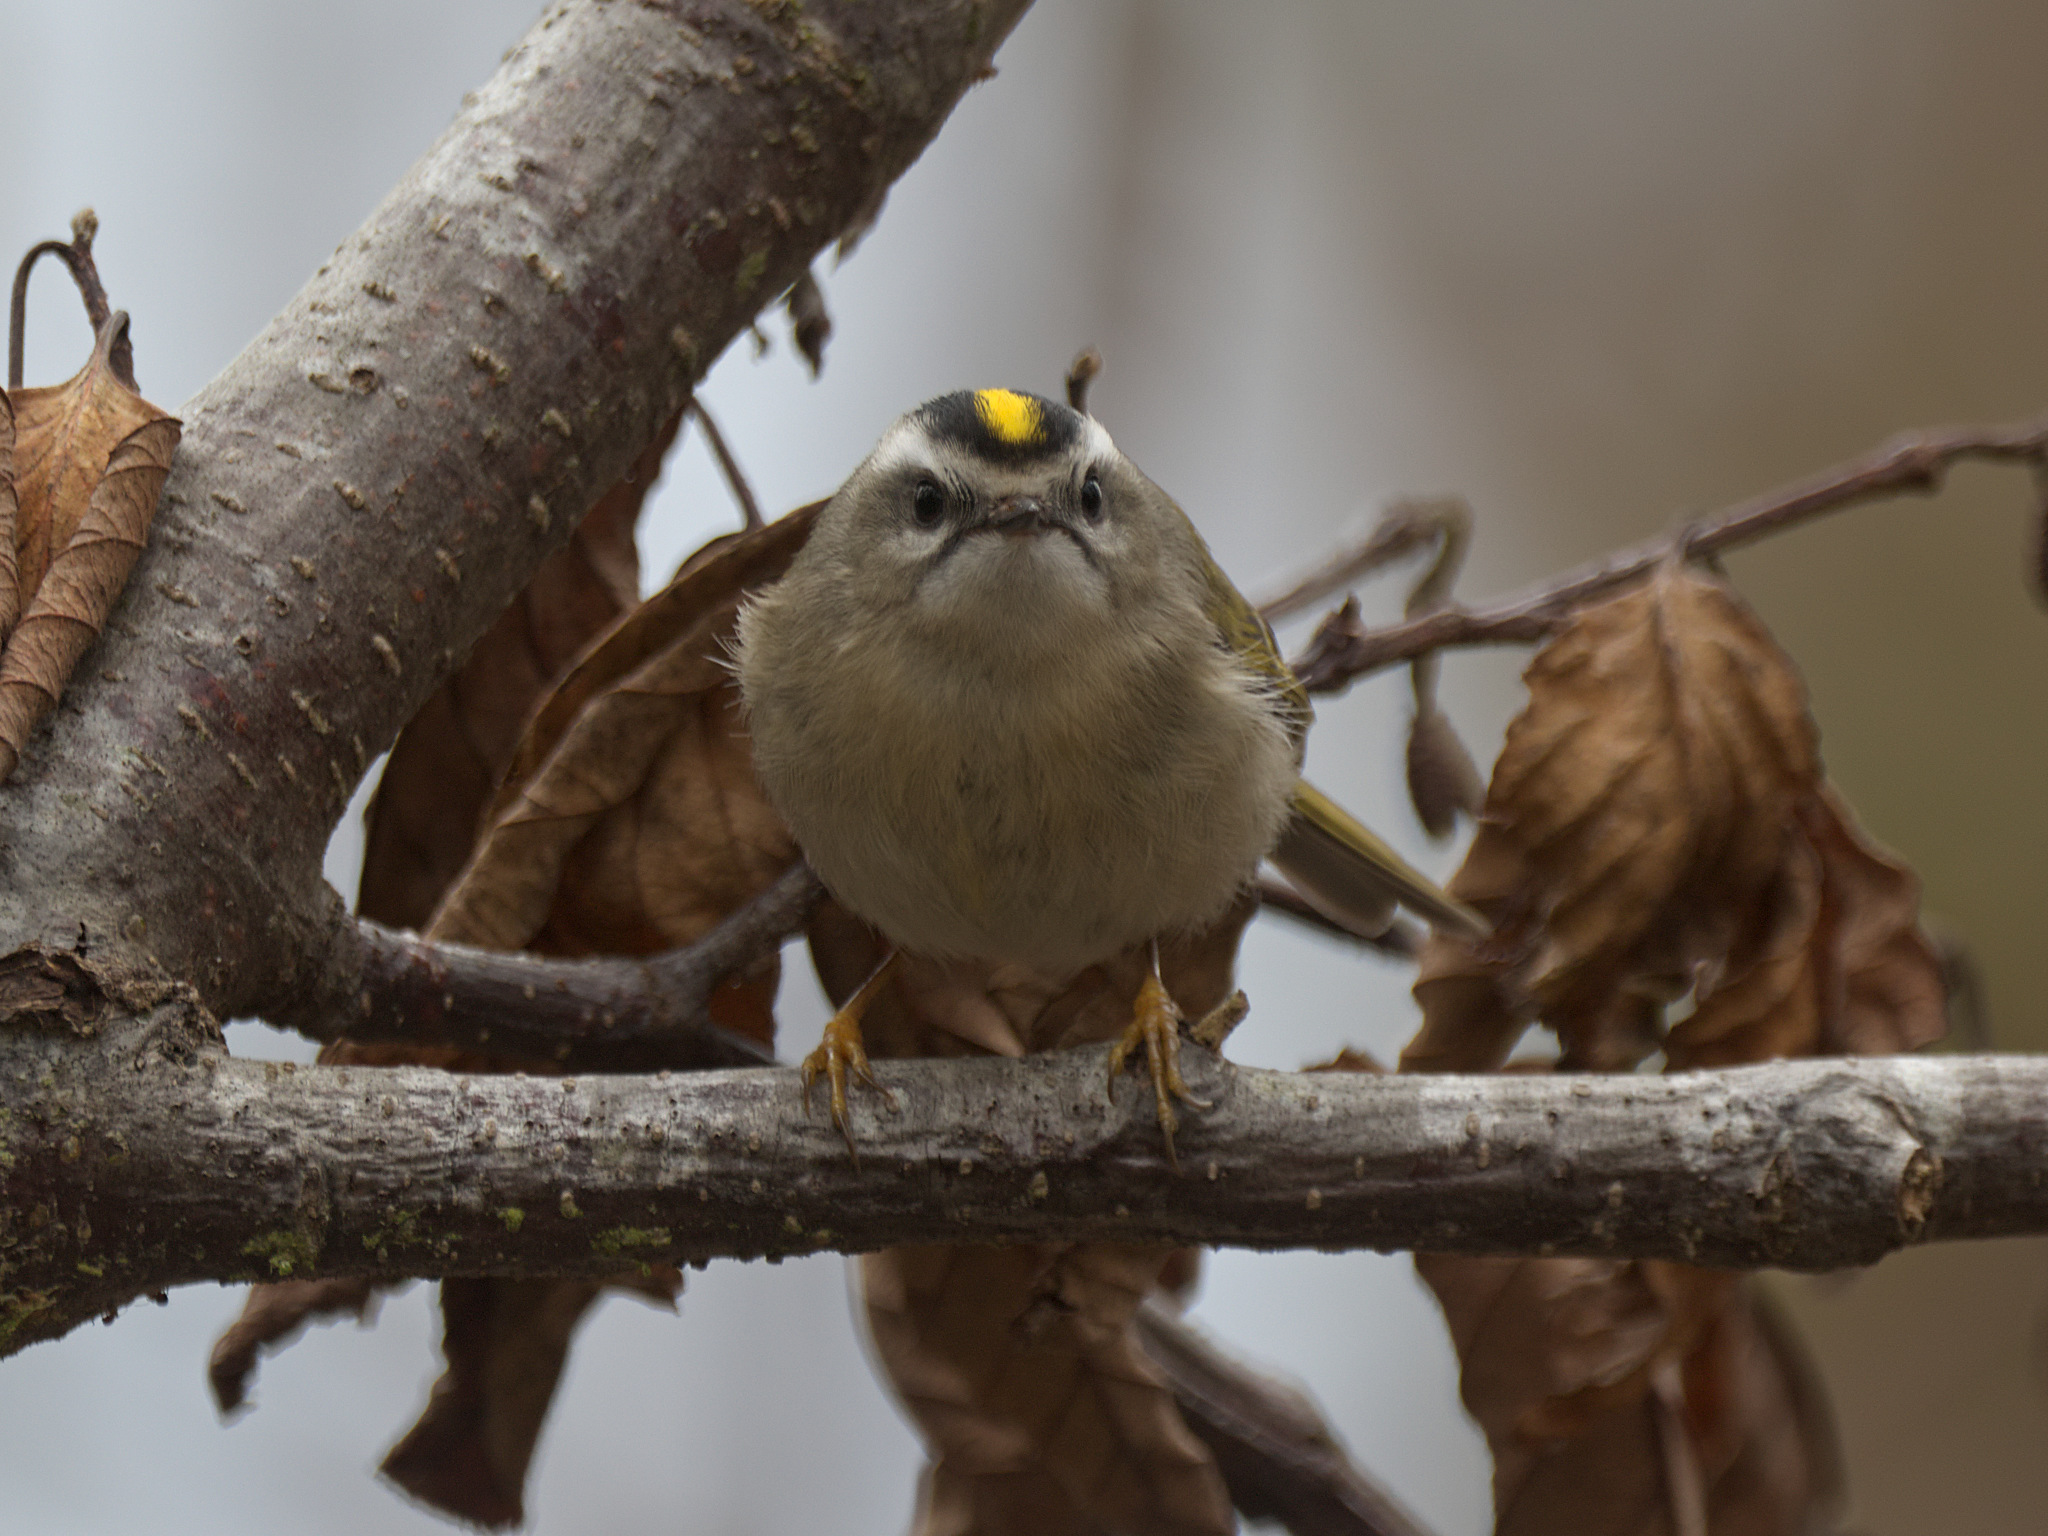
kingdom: Animalia
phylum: Chordata
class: Aves
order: Passeriformes
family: Regulidae
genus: Regulus
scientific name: Regulus satrapa
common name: Golden-crowned kinglet
